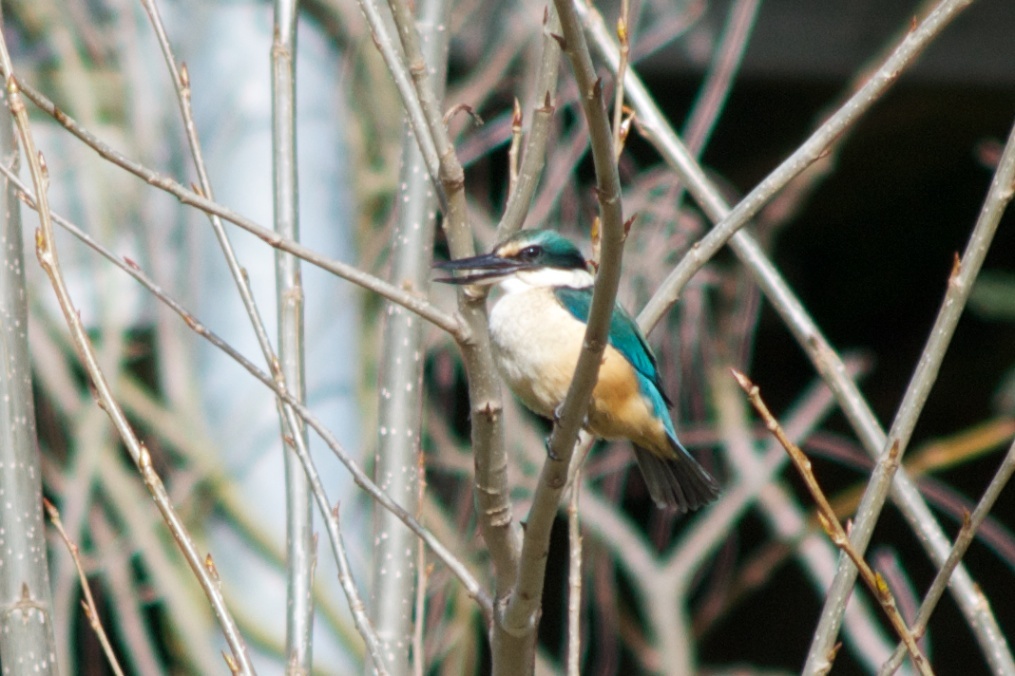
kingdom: Animalia
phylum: Chordata
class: Aves
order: Coraciiformes
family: Alcedinidae
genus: Todiramphus
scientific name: Todiramphus sanctus
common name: Sacred kingfisher
